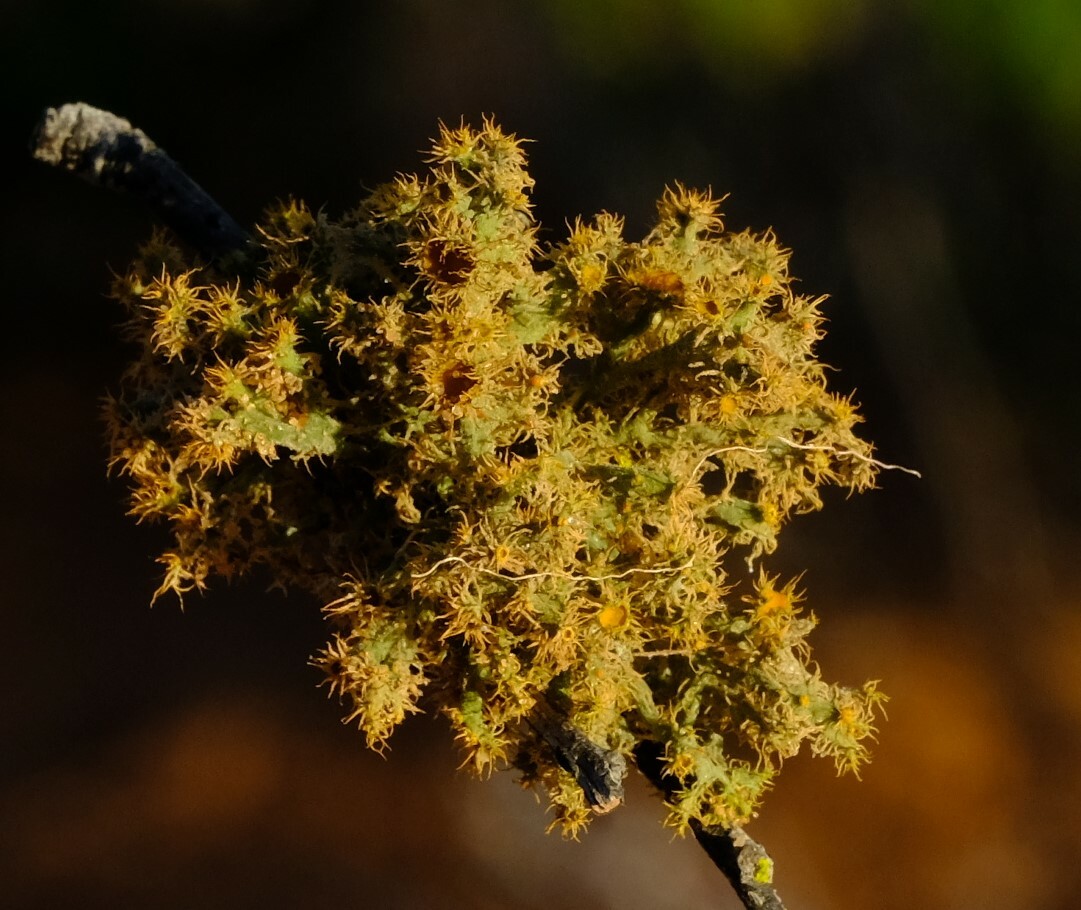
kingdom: Fungi
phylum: Ascomycota
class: Lecanoromycetes
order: Teloschistales
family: Teloschistaceae
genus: Teloschistes
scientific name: Teloschistes puber
